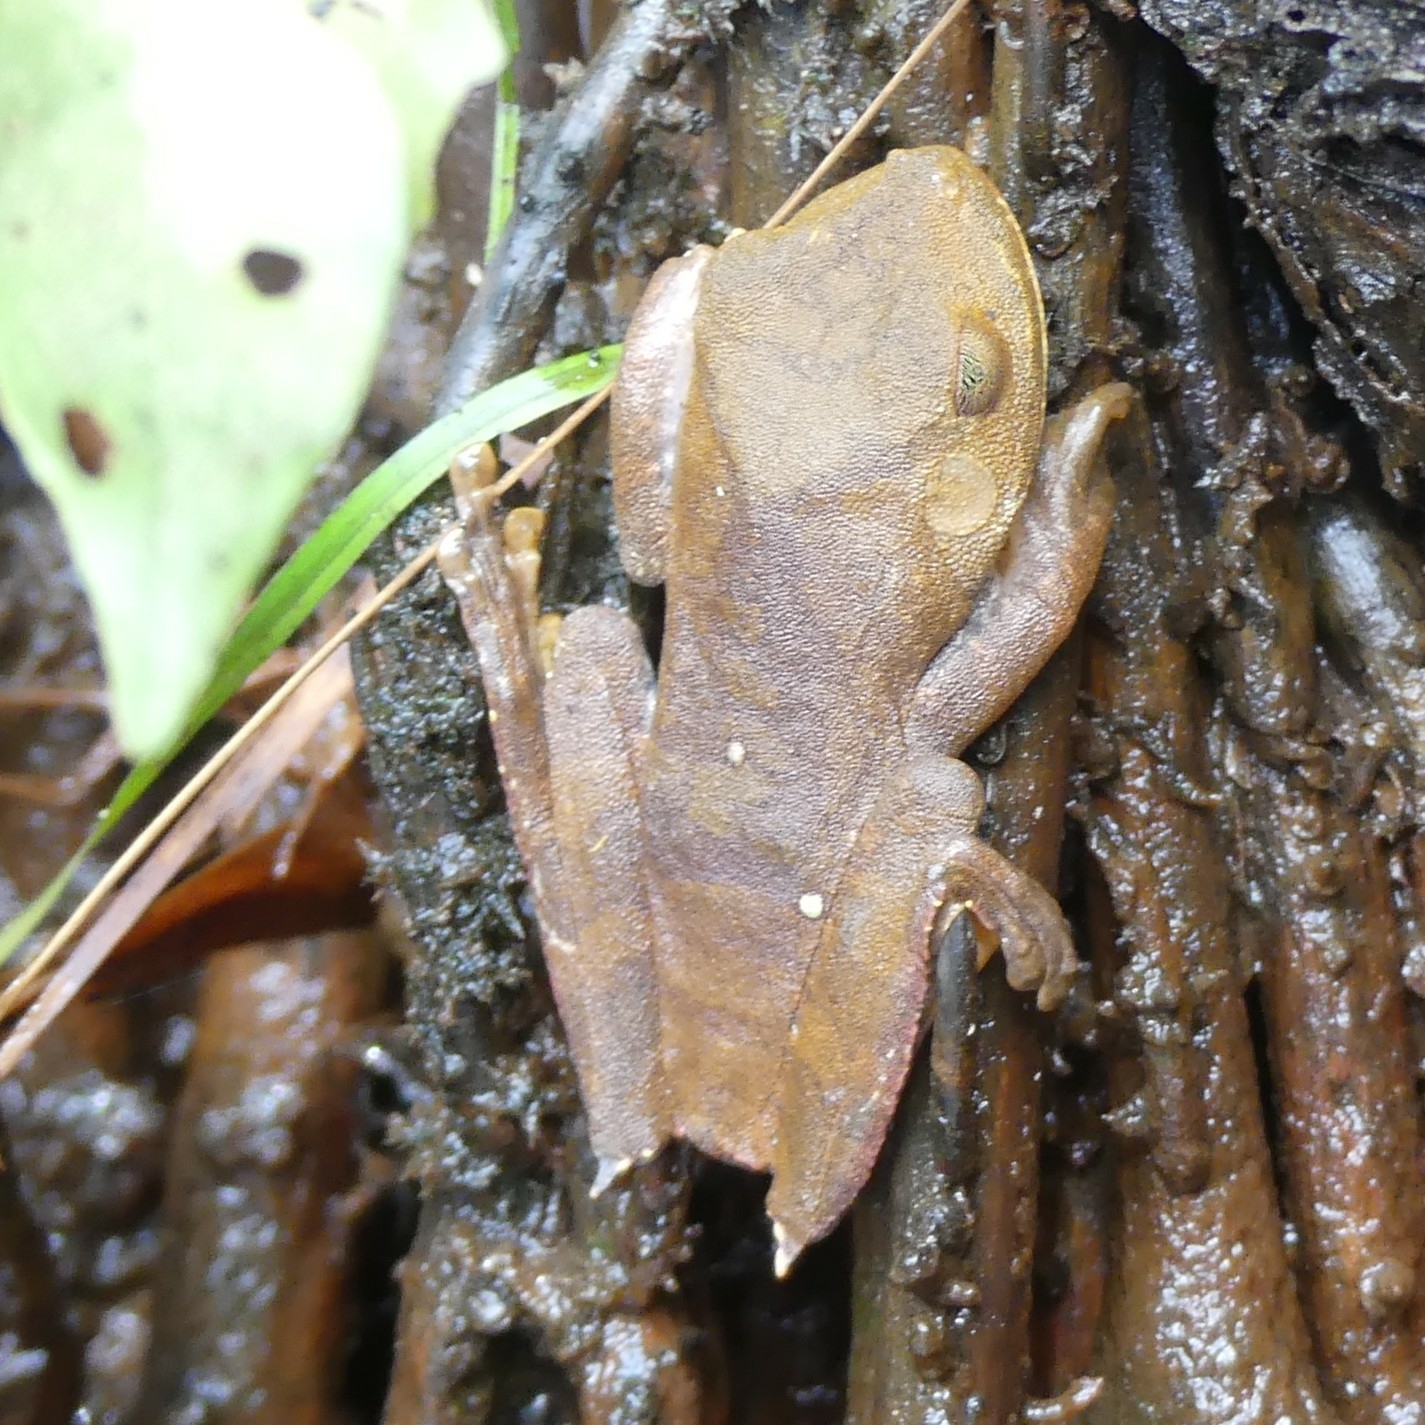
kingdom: Animalia
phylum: Chordata
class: Amphibia
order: Anura
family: Hylidae
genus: Boana
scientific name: Boana semilineata
